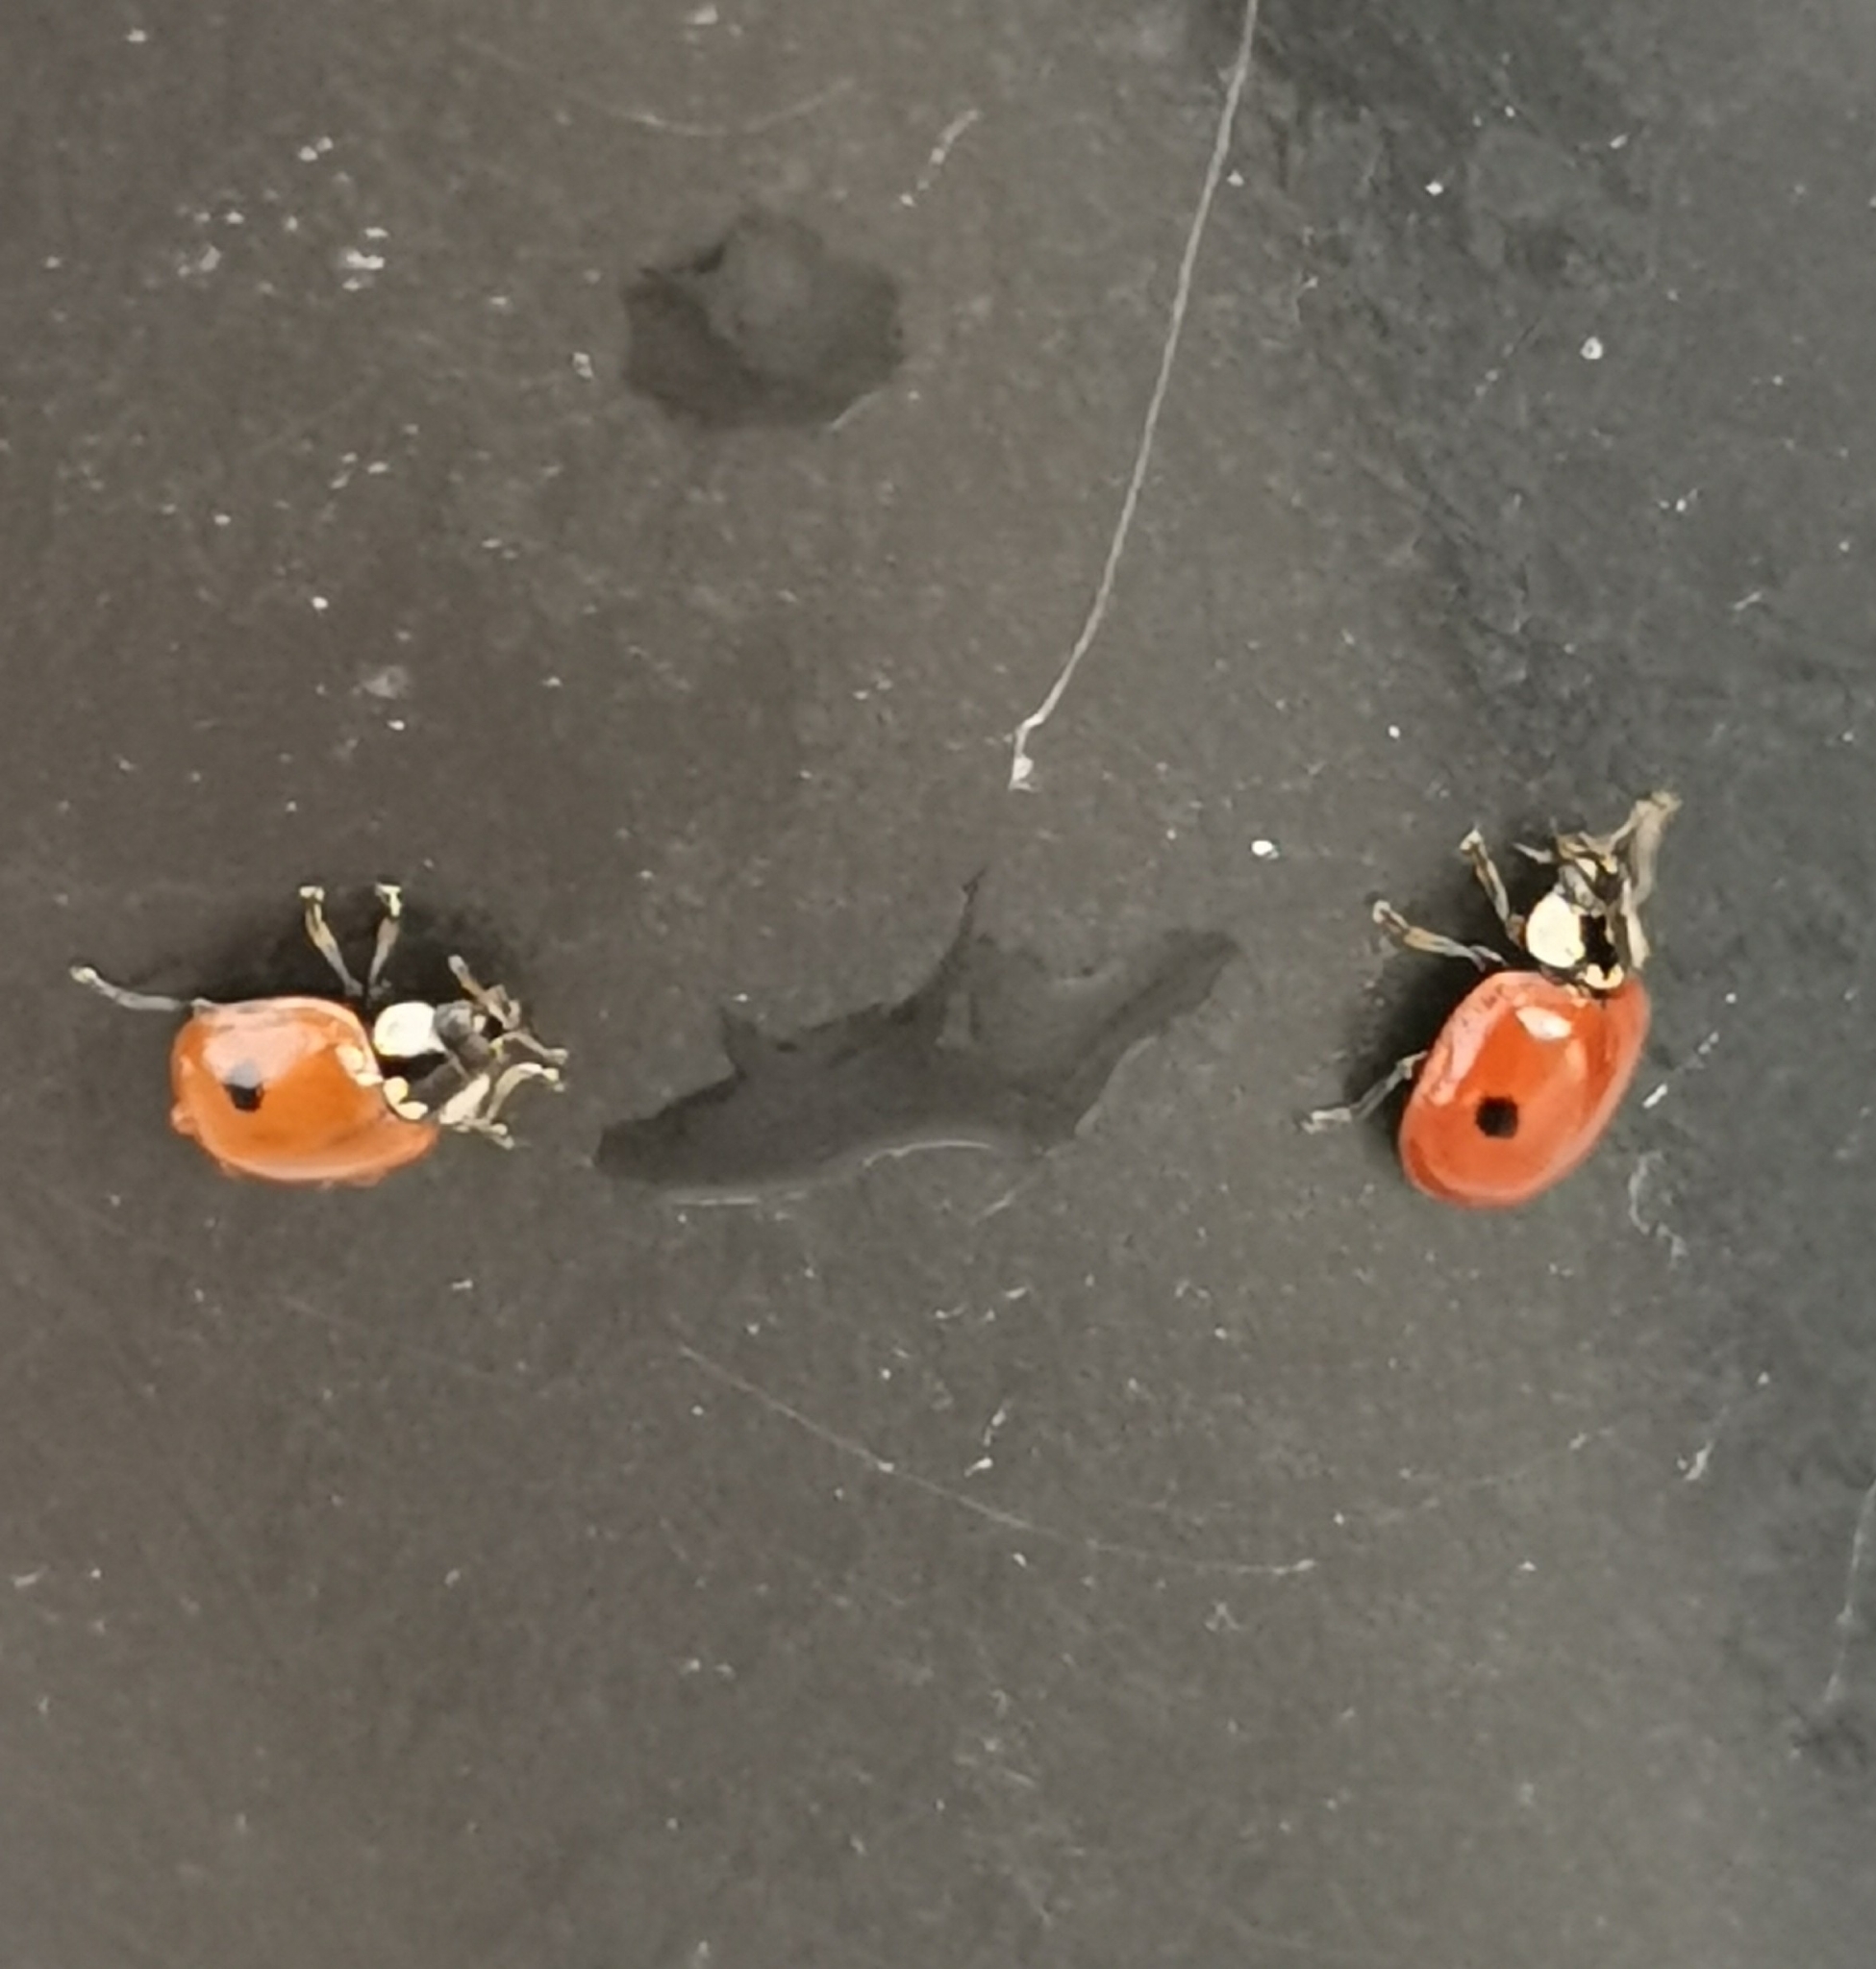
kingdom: Animalia
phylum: Arthropoda
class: Insecta
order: Coleoptera
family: Coccinellidae
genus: Adalia
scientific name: Adalia bipunctata
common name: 2-spot ladybird
